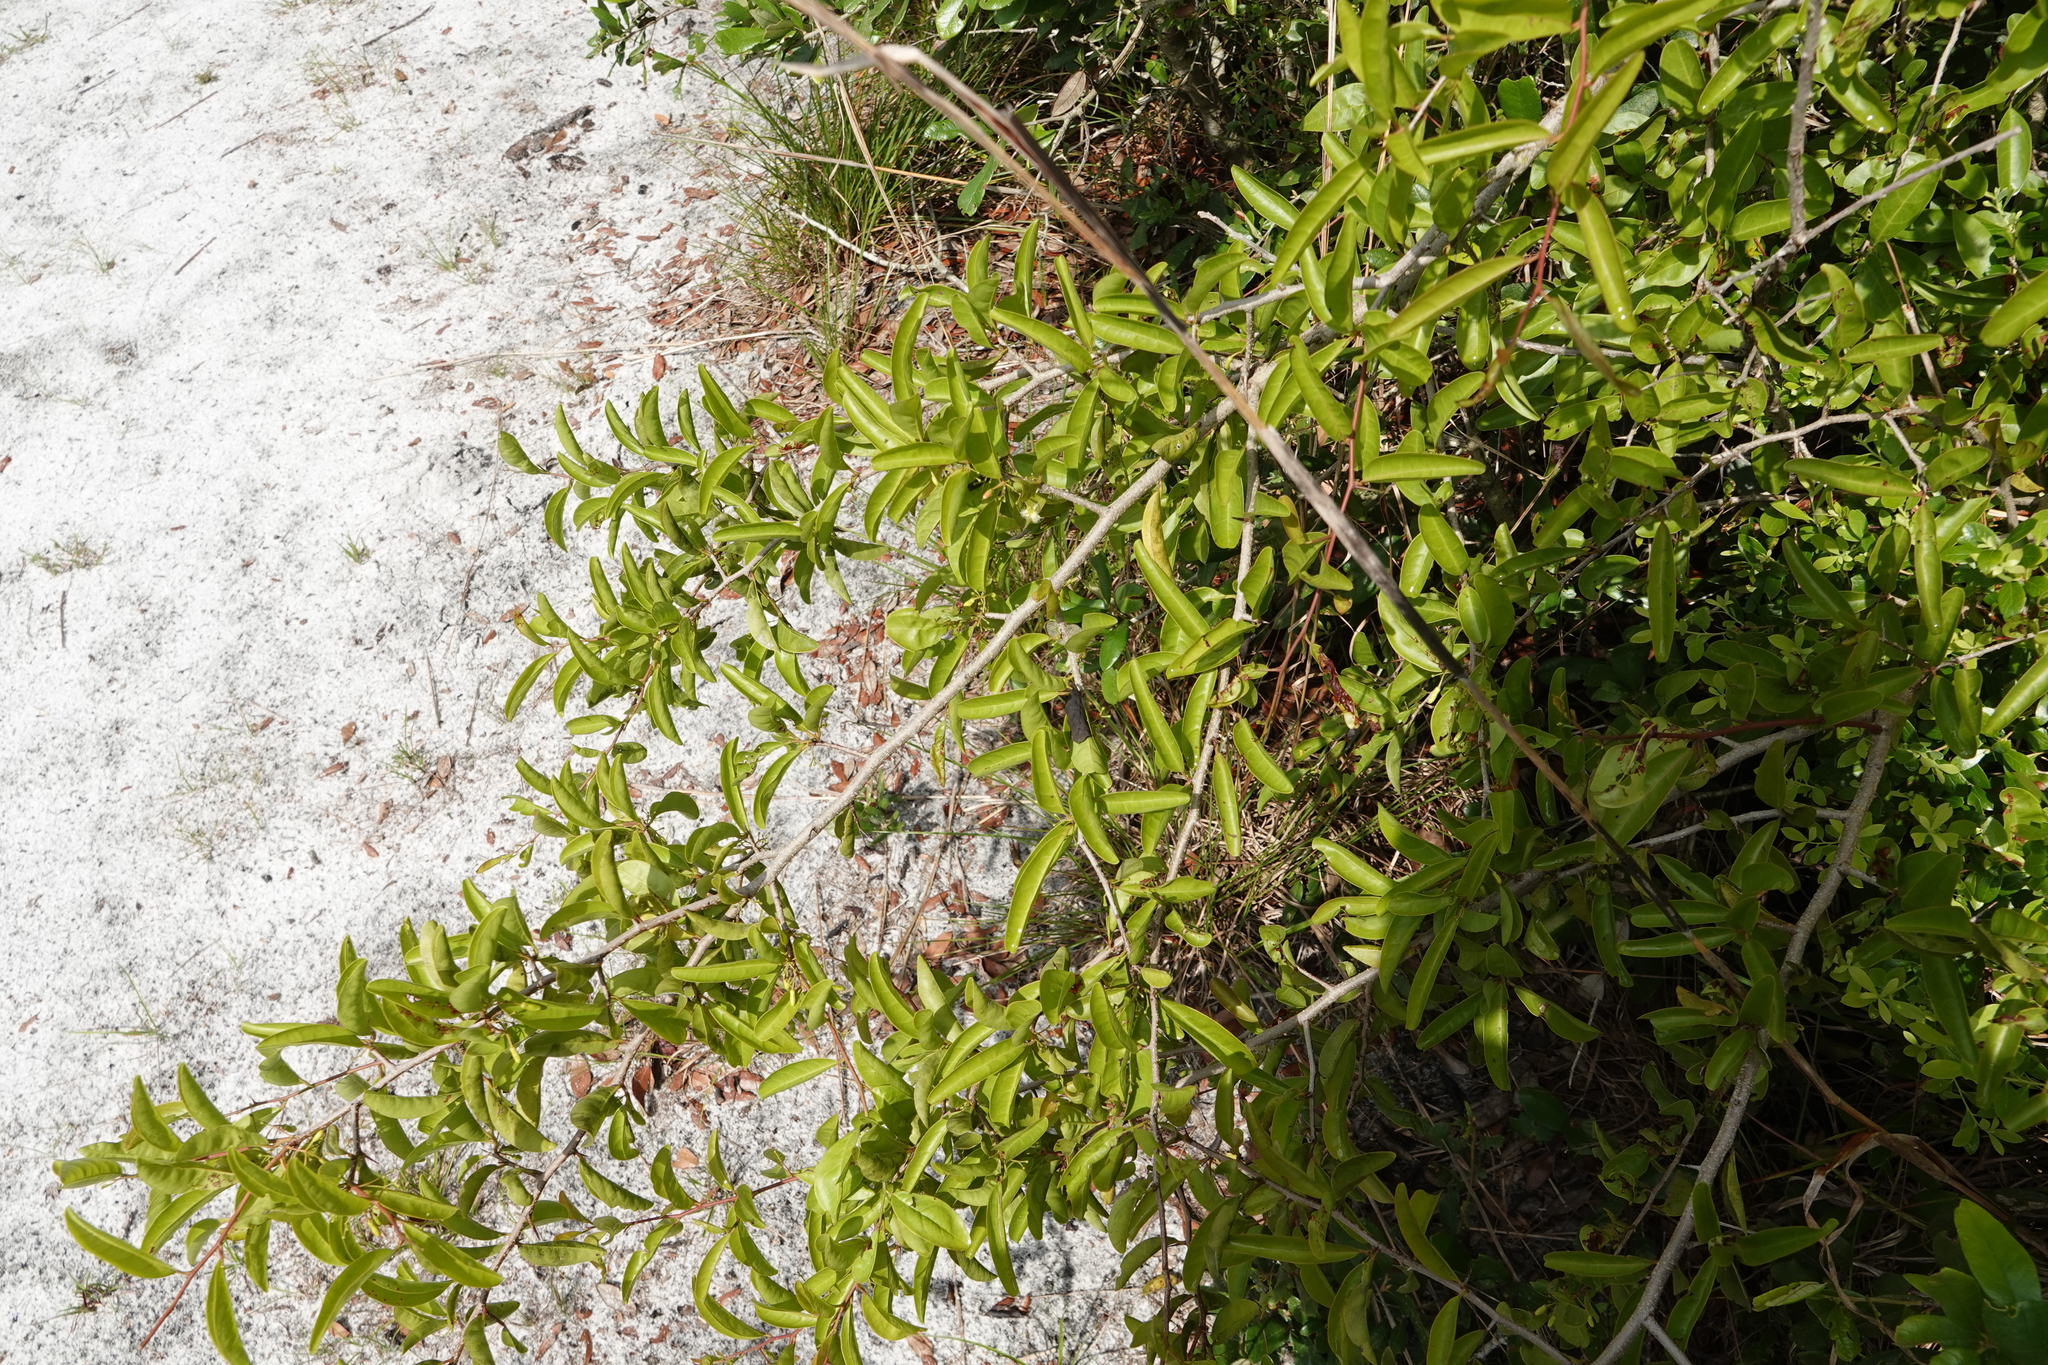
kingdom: Plantae
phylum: Tracheophyta
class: Magnoliopsida
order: Santalales
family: Ximeniaceae
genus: Ximenia
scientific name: Ximenia americana
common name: Tallowwood
